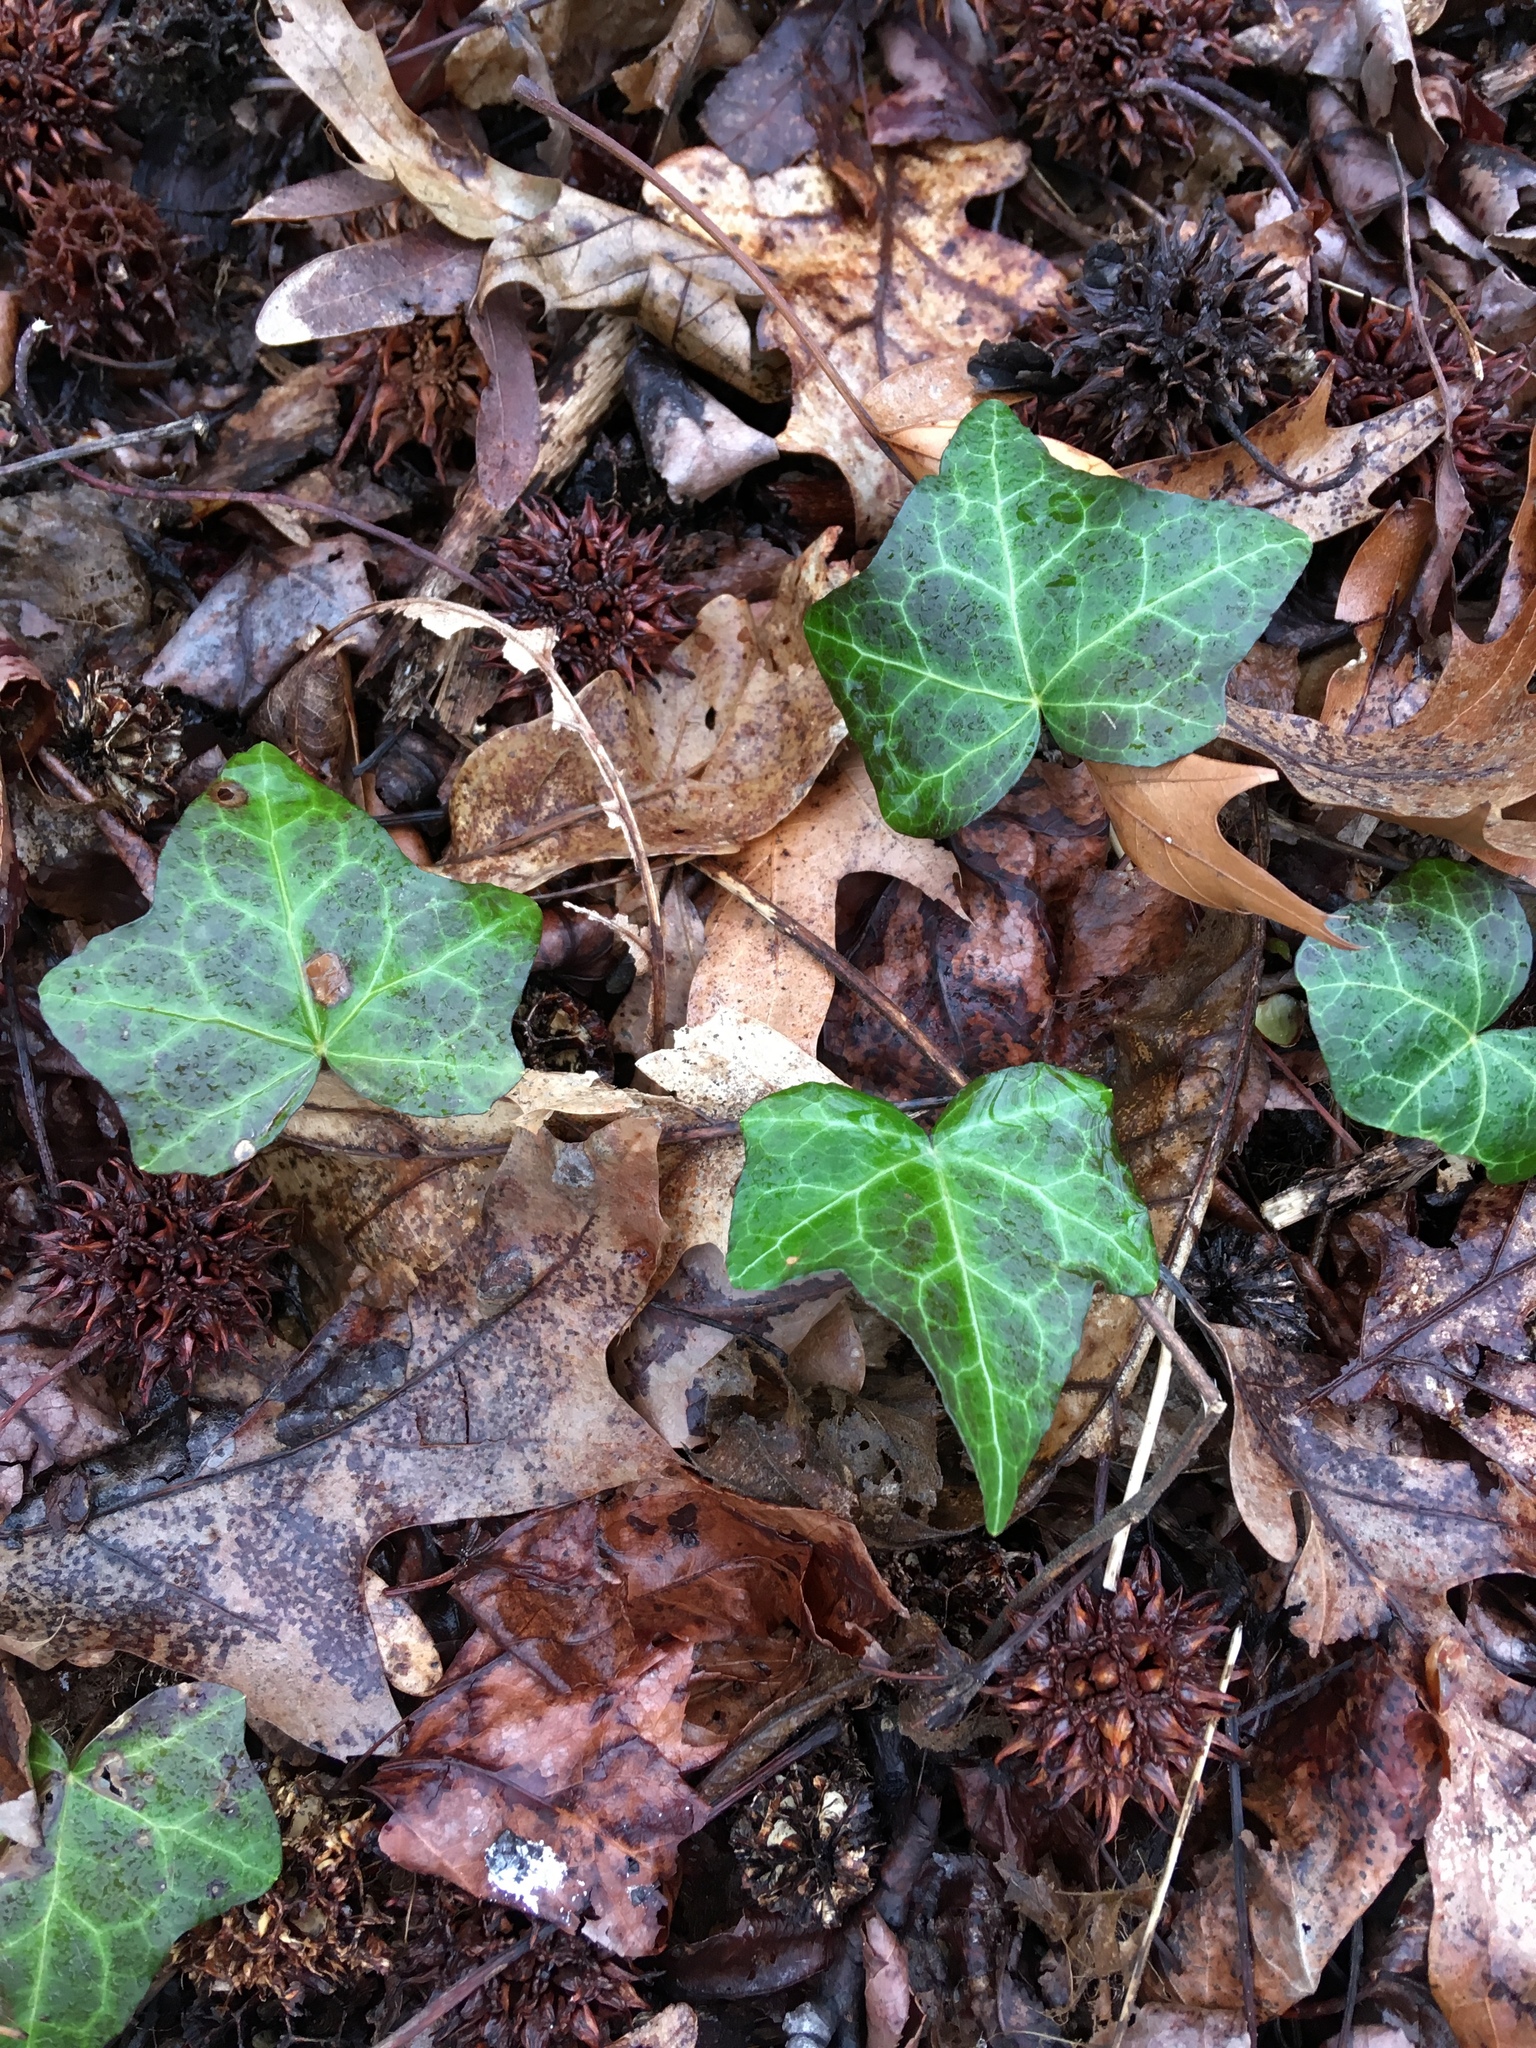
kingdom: Plantae
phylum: Tracheophyta
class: Magnoliopsida
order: Apiales
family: Araliaceae
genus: Hedera
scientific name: Hedera helix
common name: Ivy
